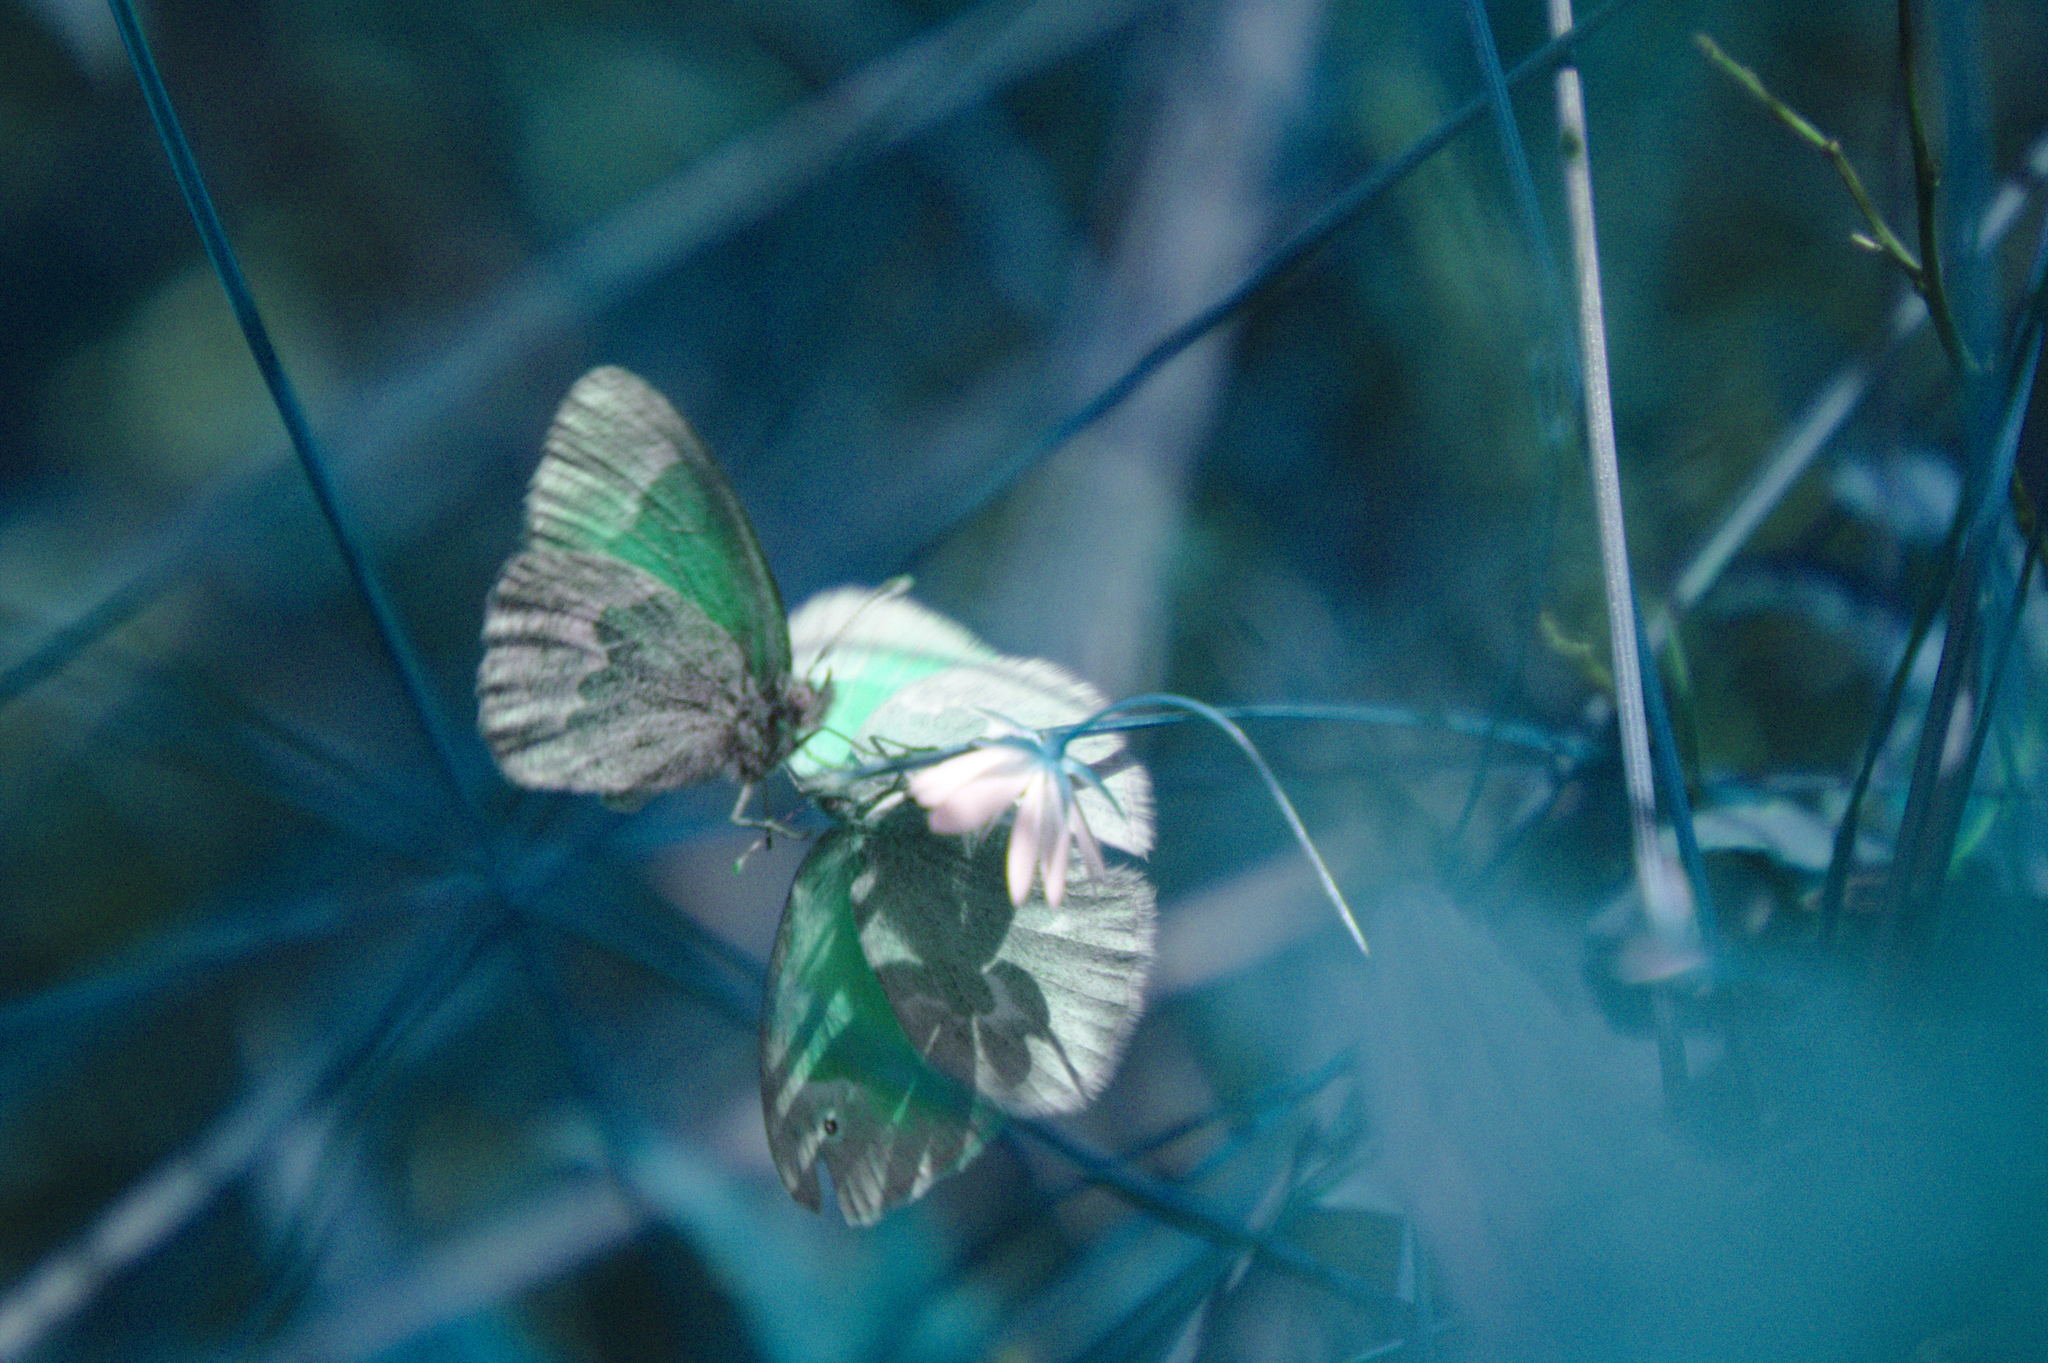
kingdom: Animalia
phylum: Arthropoda
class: Insecta
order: Lepidoptera
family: Nymphalidae
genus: Coenonympha
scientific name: Coenonympha california
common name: Common ringlet
